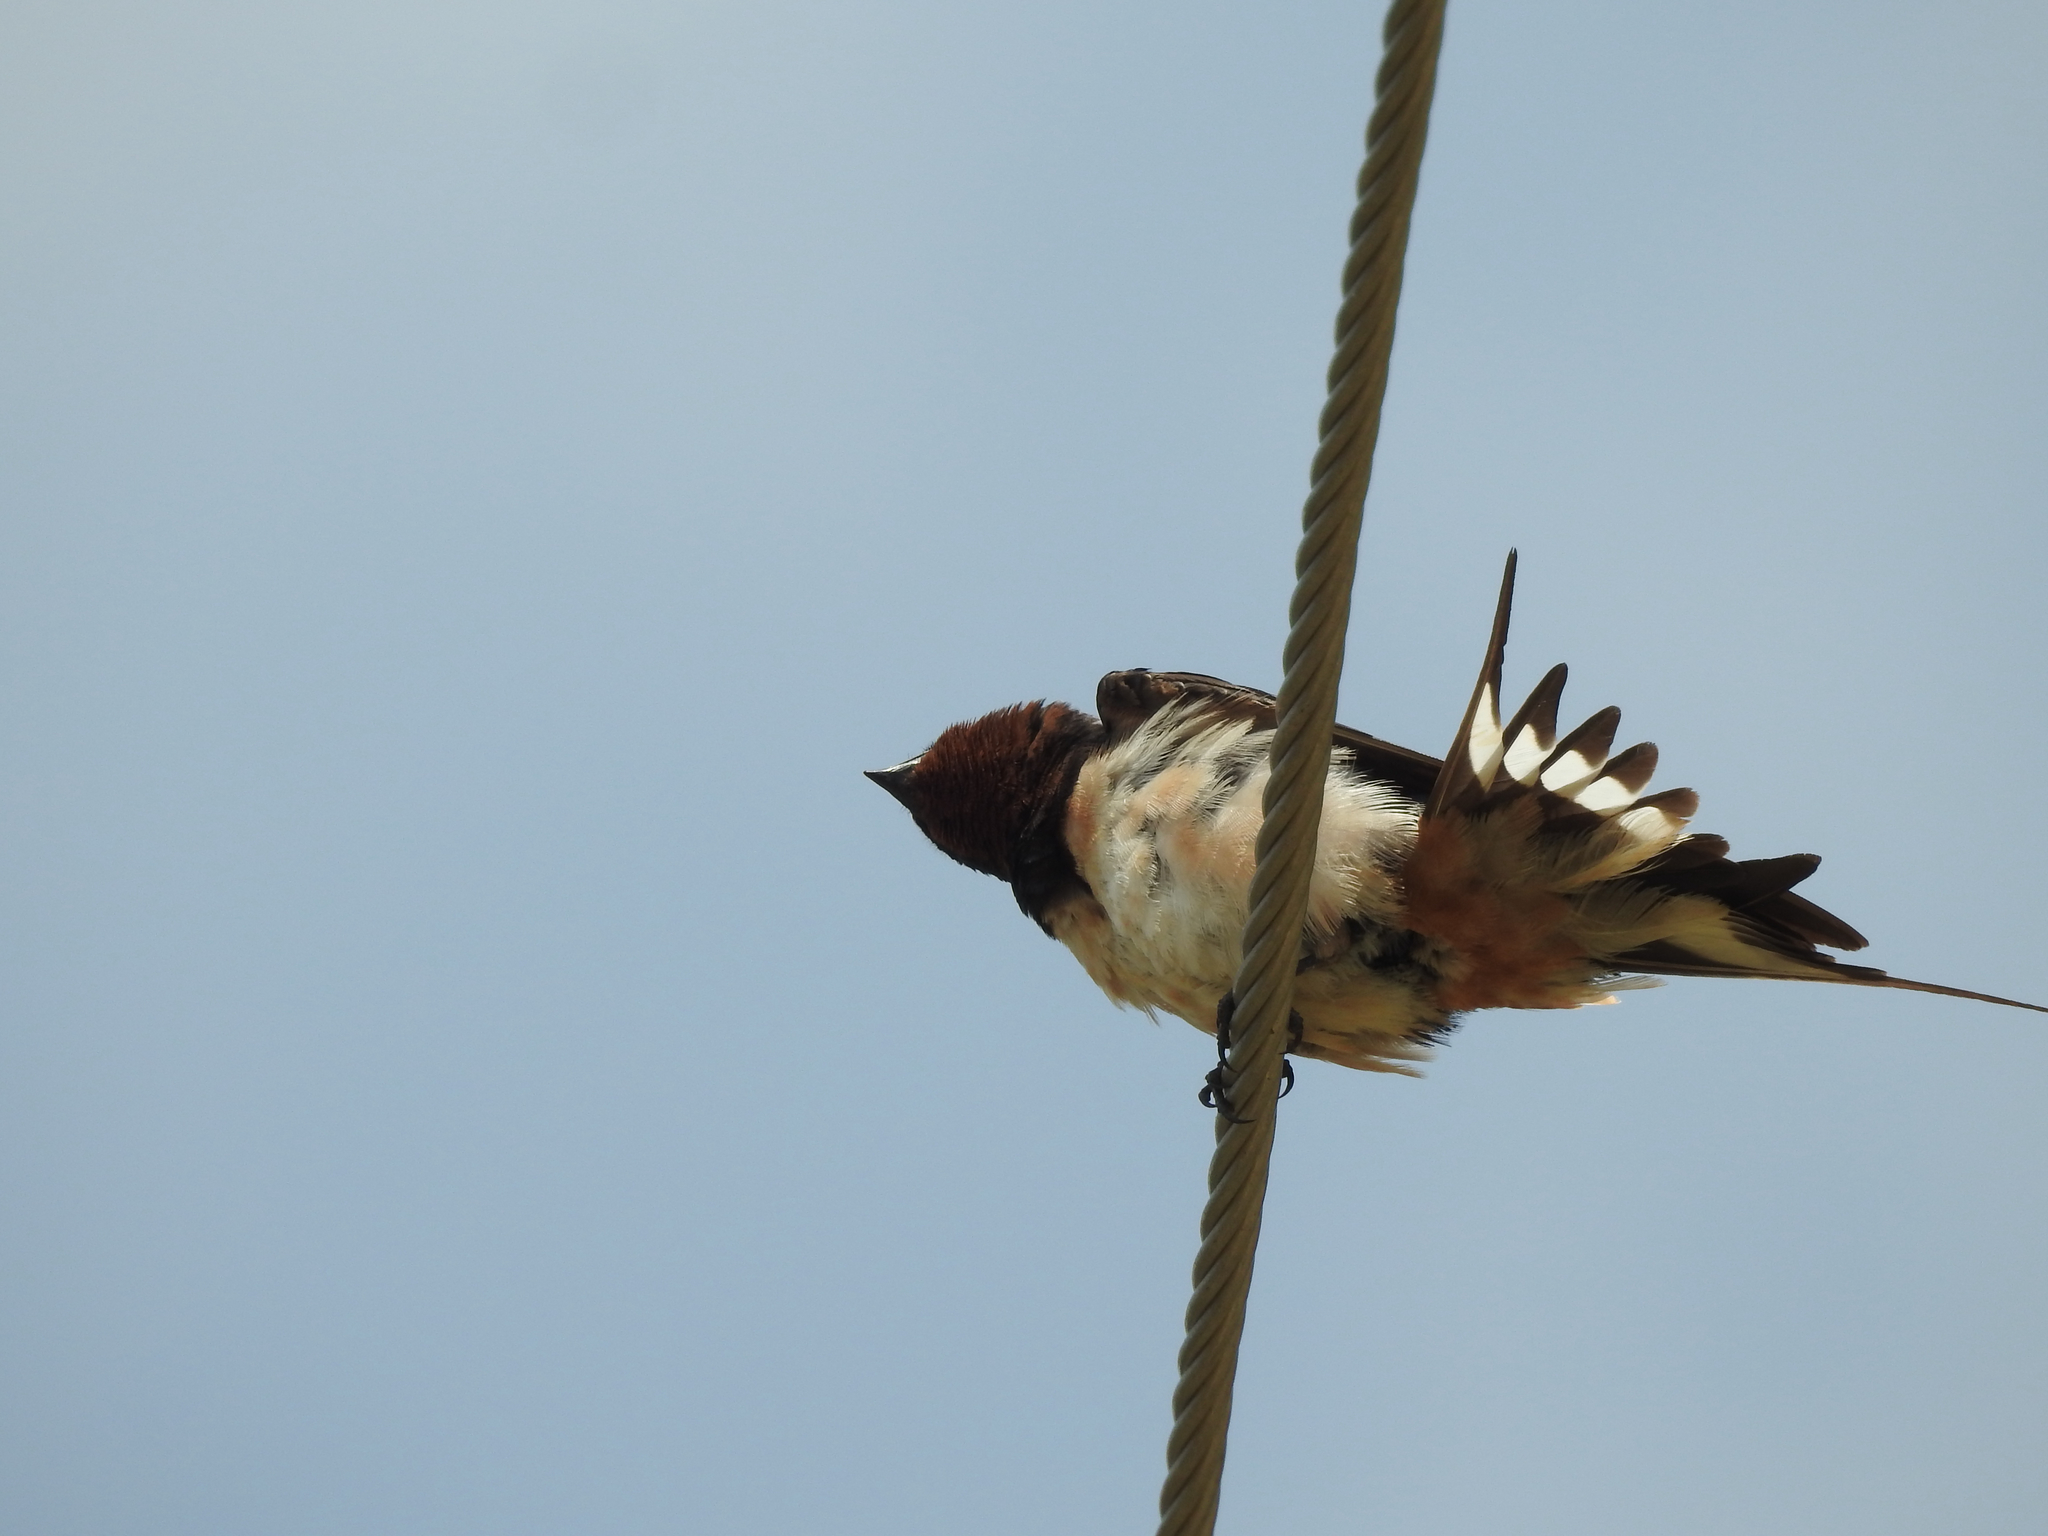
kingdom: Animalia
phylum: Chordata
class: Aves
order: Passeriformes
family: Hirundinidae
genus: Hirundo
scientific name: Hirundo rustica
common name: Barn swallow
